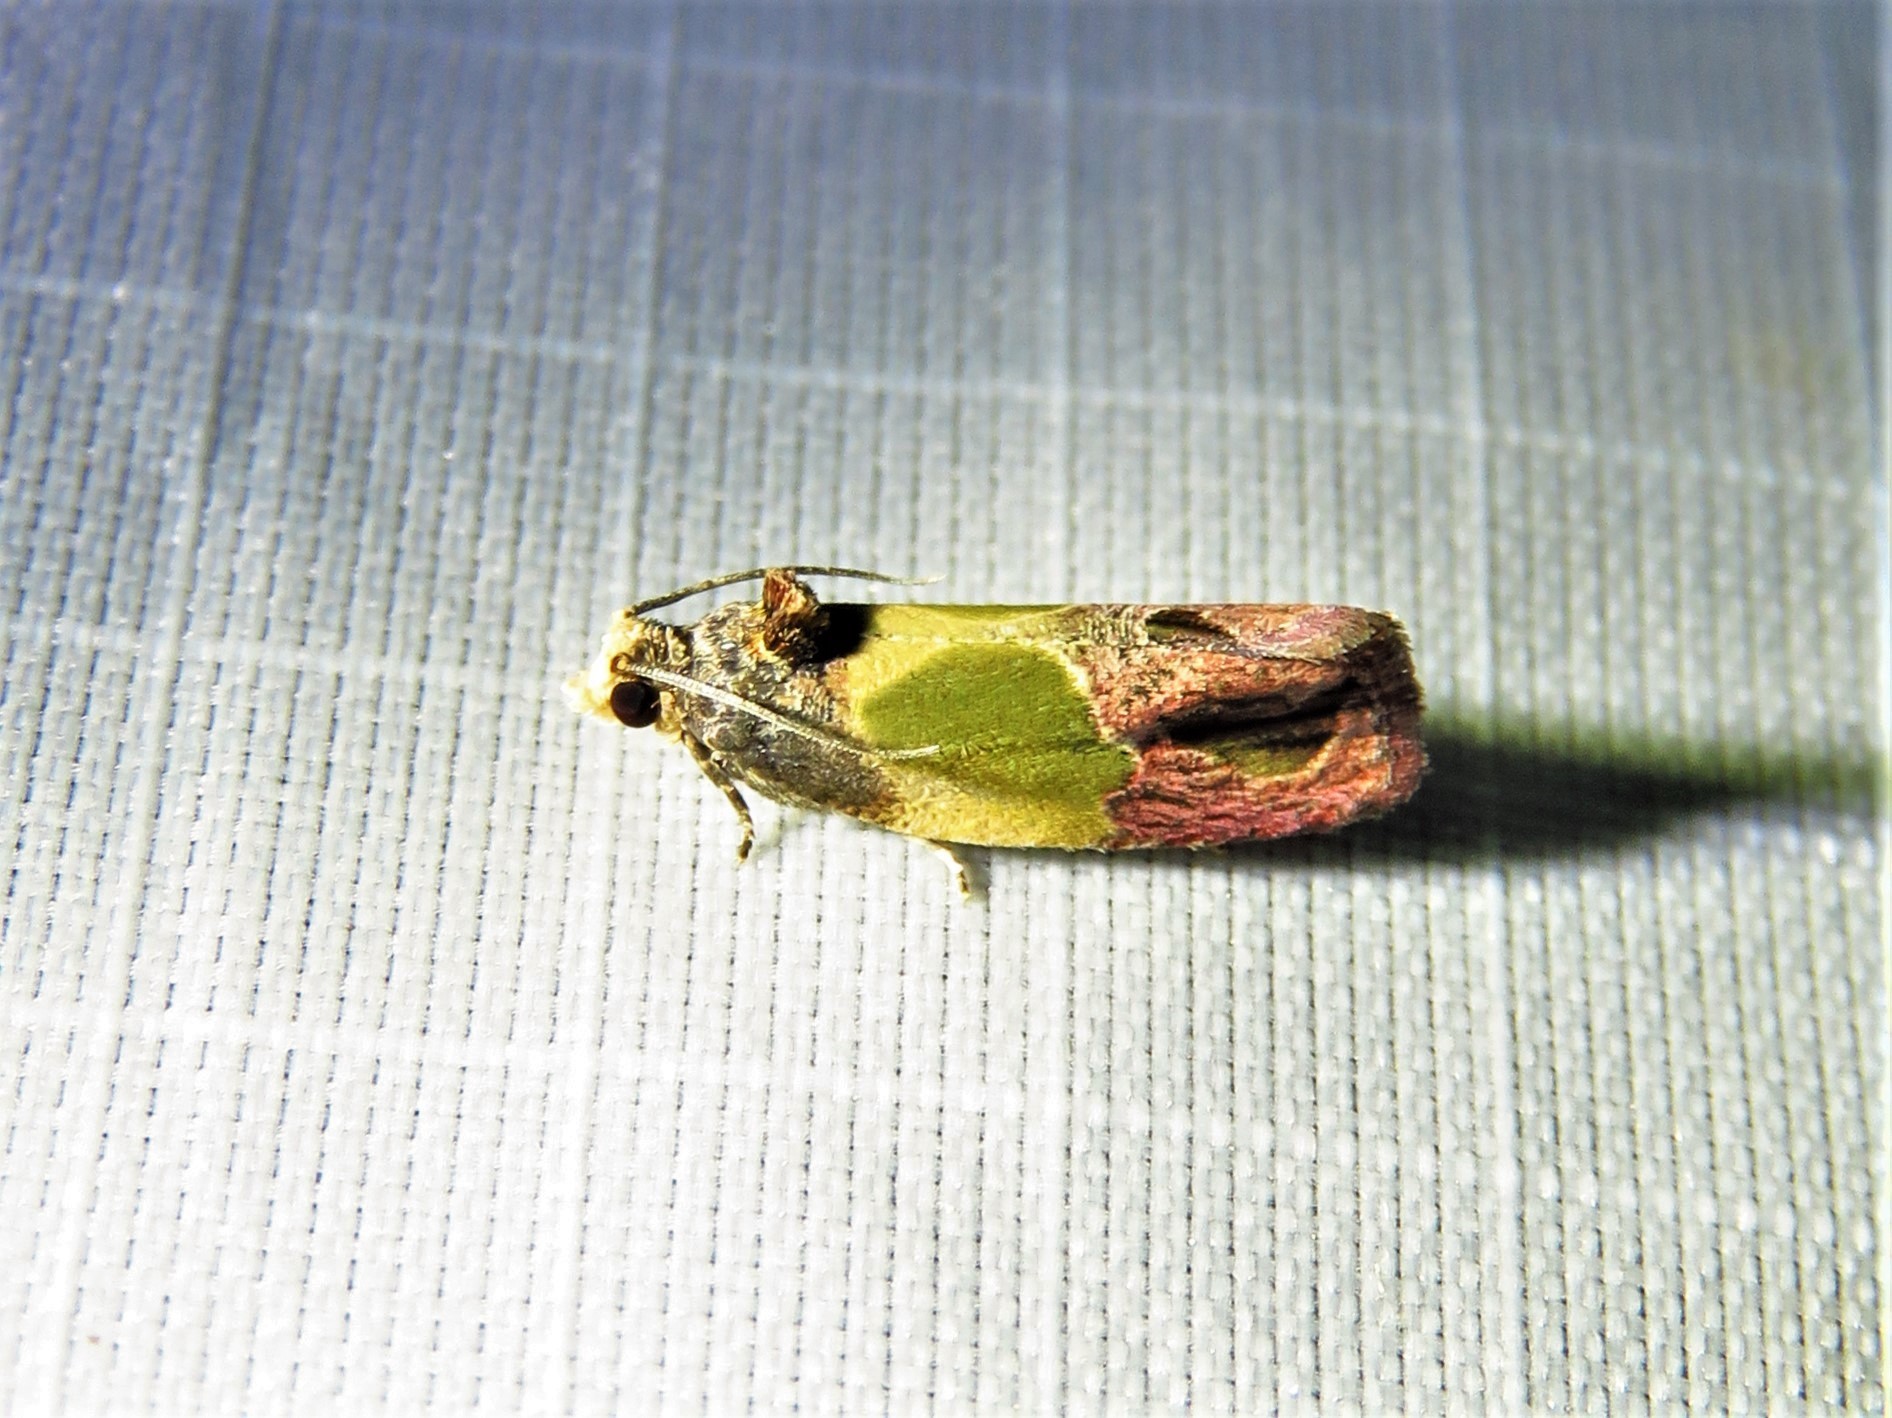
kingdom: Animalia
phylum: Arthropoda
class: Insecta
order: Lepidoptera
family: Tortricidae
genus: Eumarozia
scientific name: Eumarozia malachitana
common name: Sculptured moth
